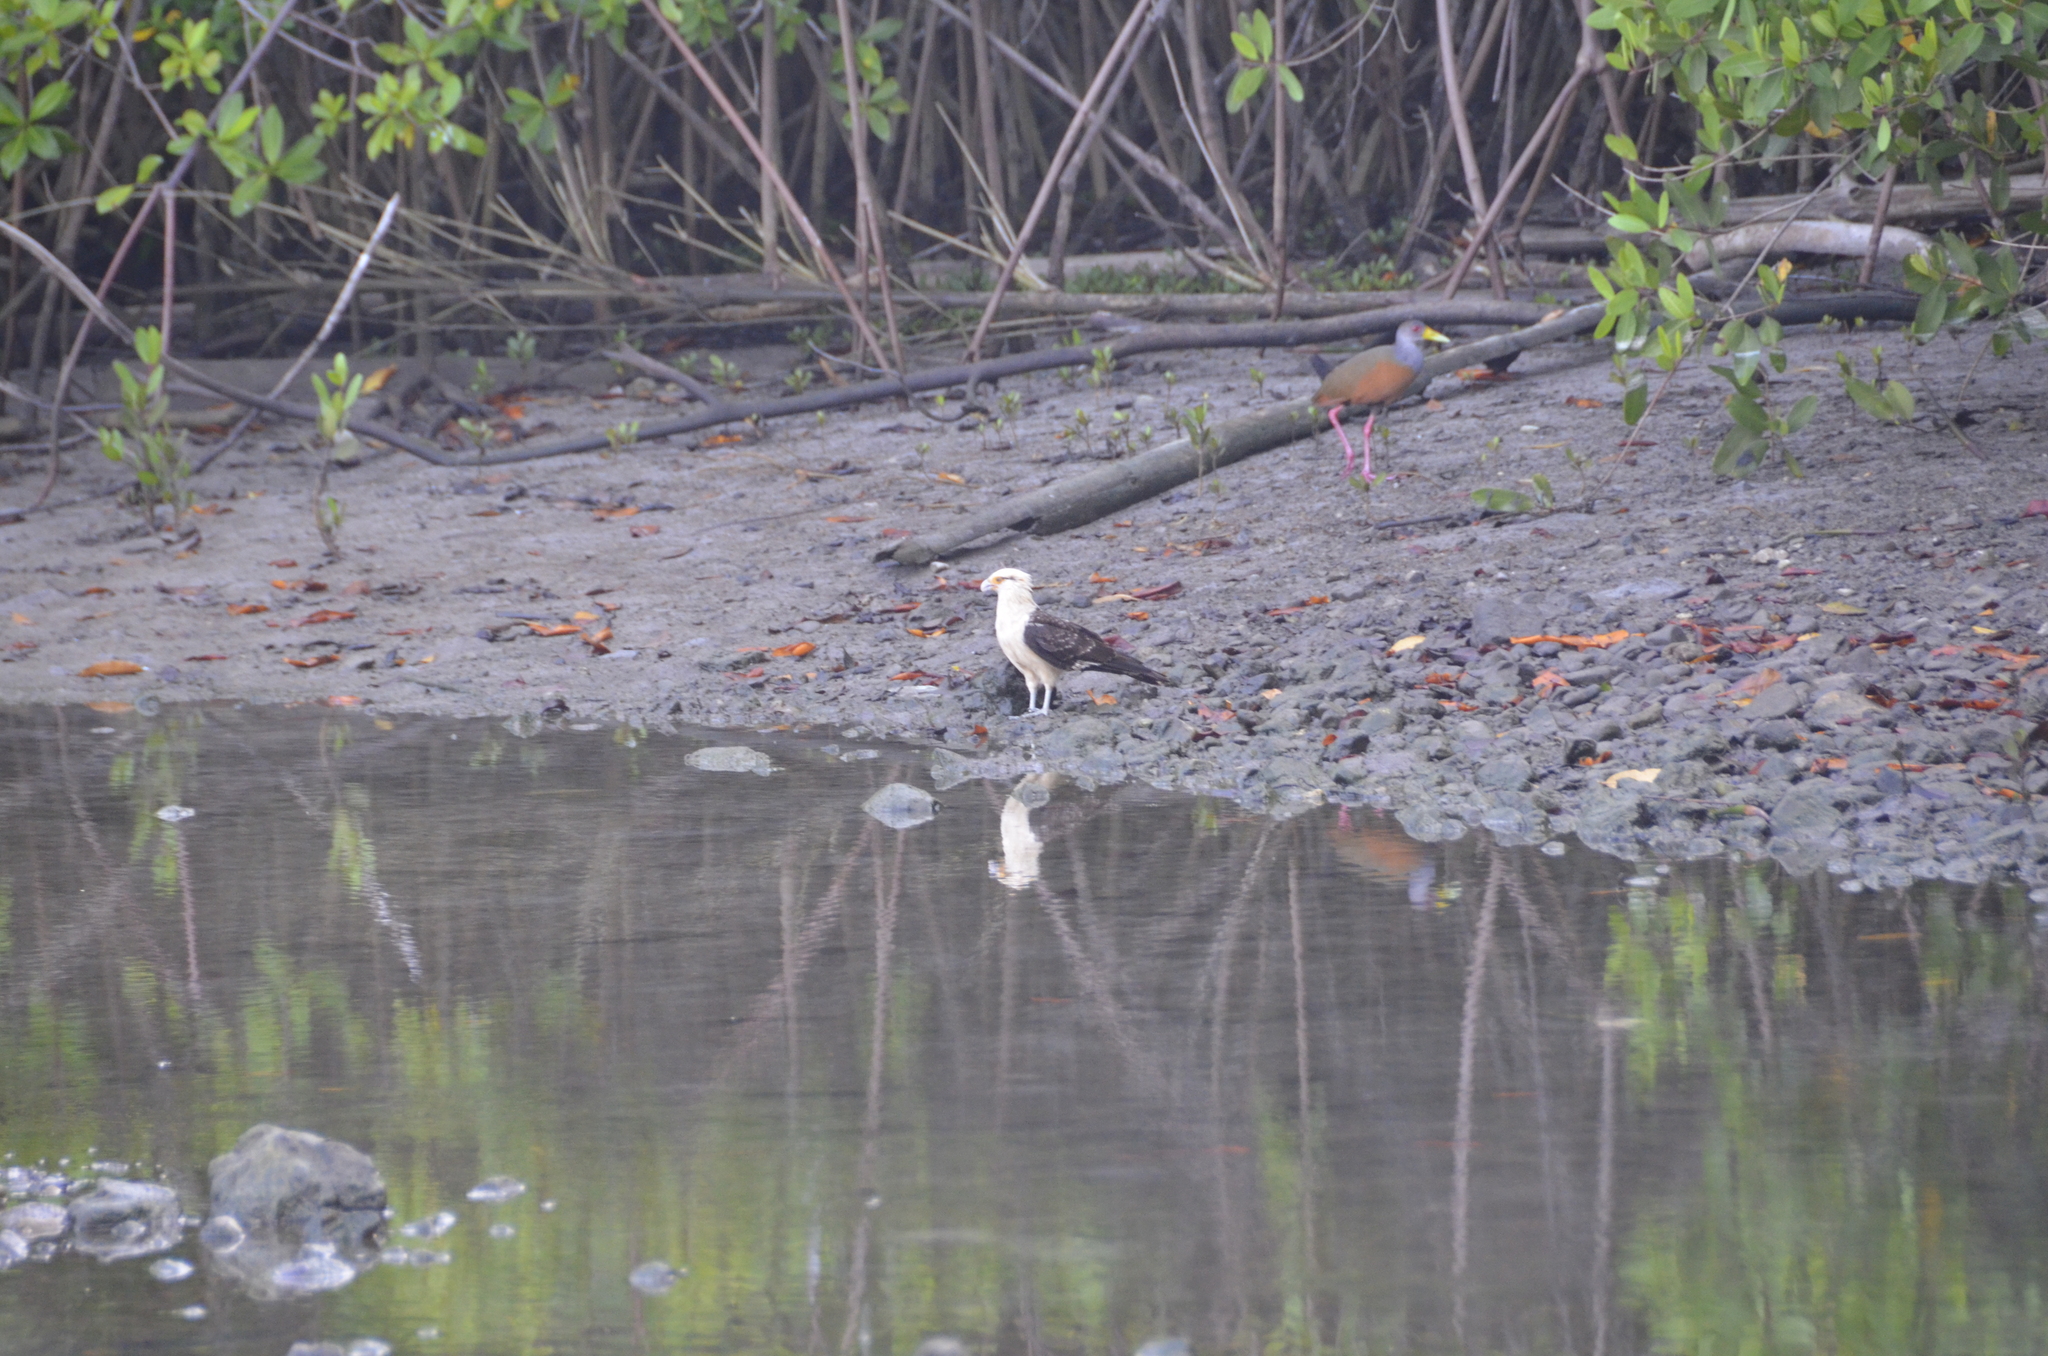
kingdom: Animalia
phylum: Chordata
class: Aves
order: Falconiformes
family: Falconidae
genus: Daptrius
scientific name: Daptrius
